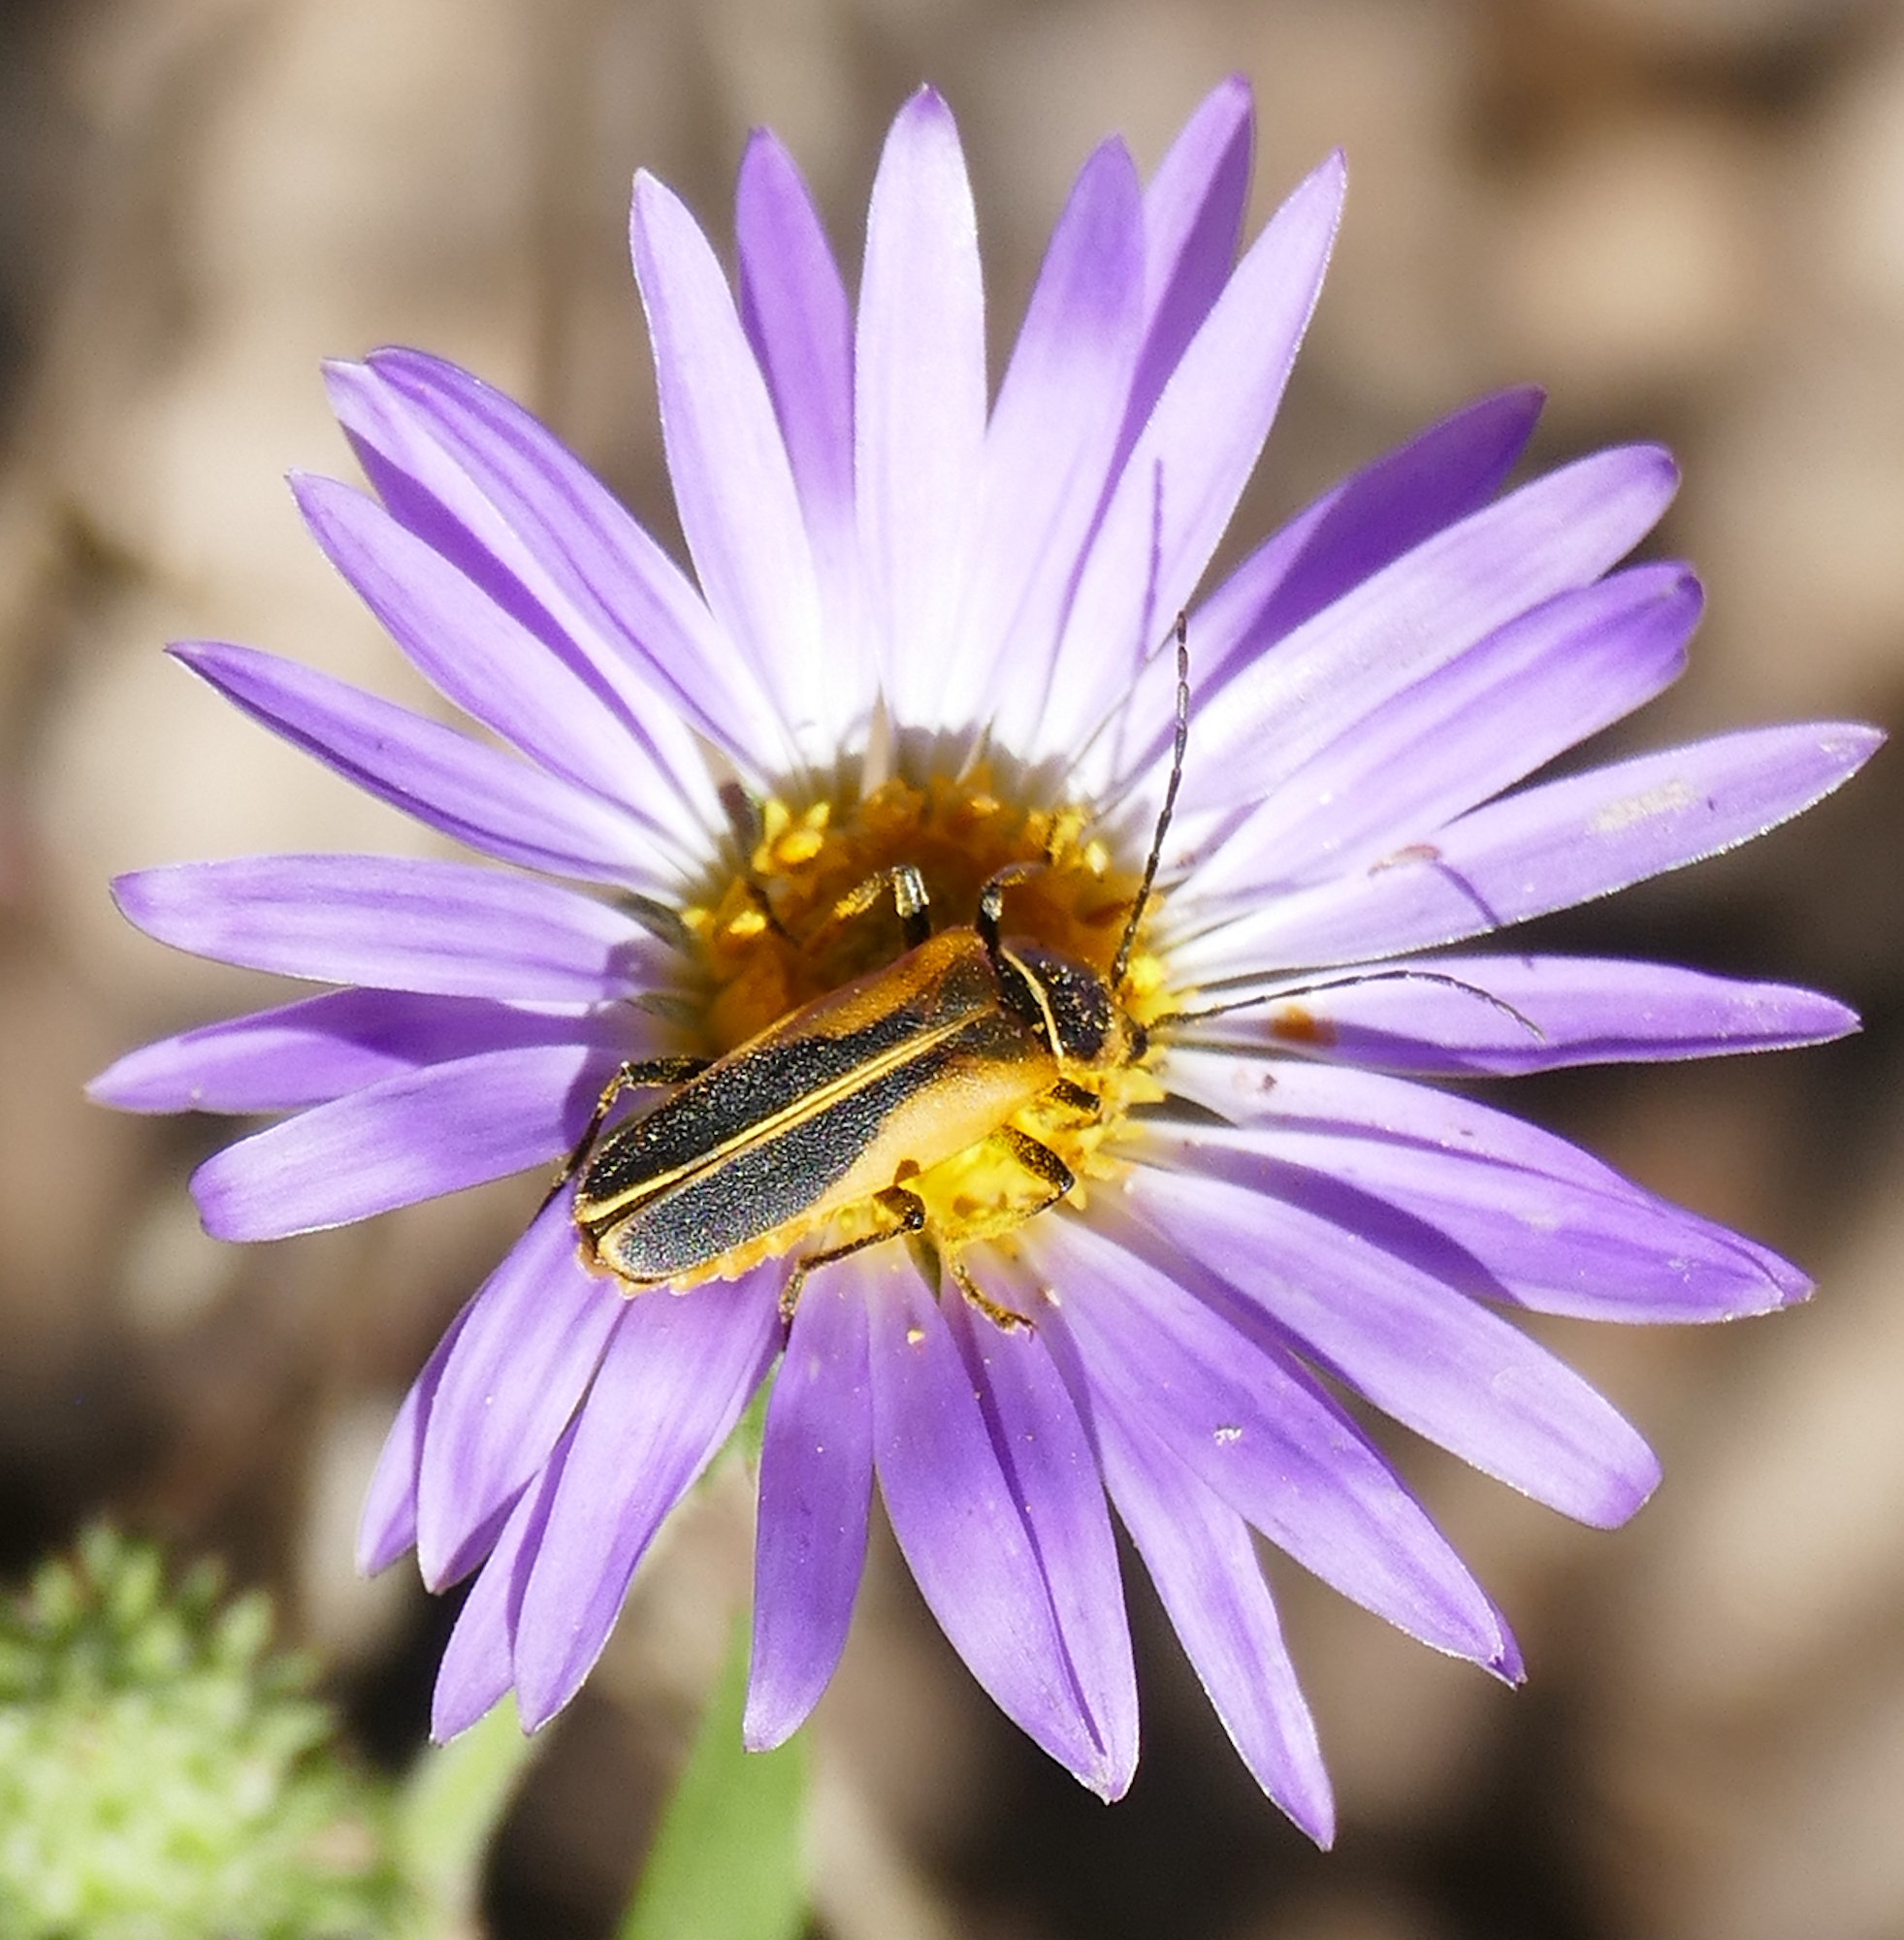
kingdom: Animalia
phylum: Arthropoda
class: Insecta
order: Coleoptera
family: Cantharidae
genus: Chauliognathus
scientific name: Chauliognathus opacus
